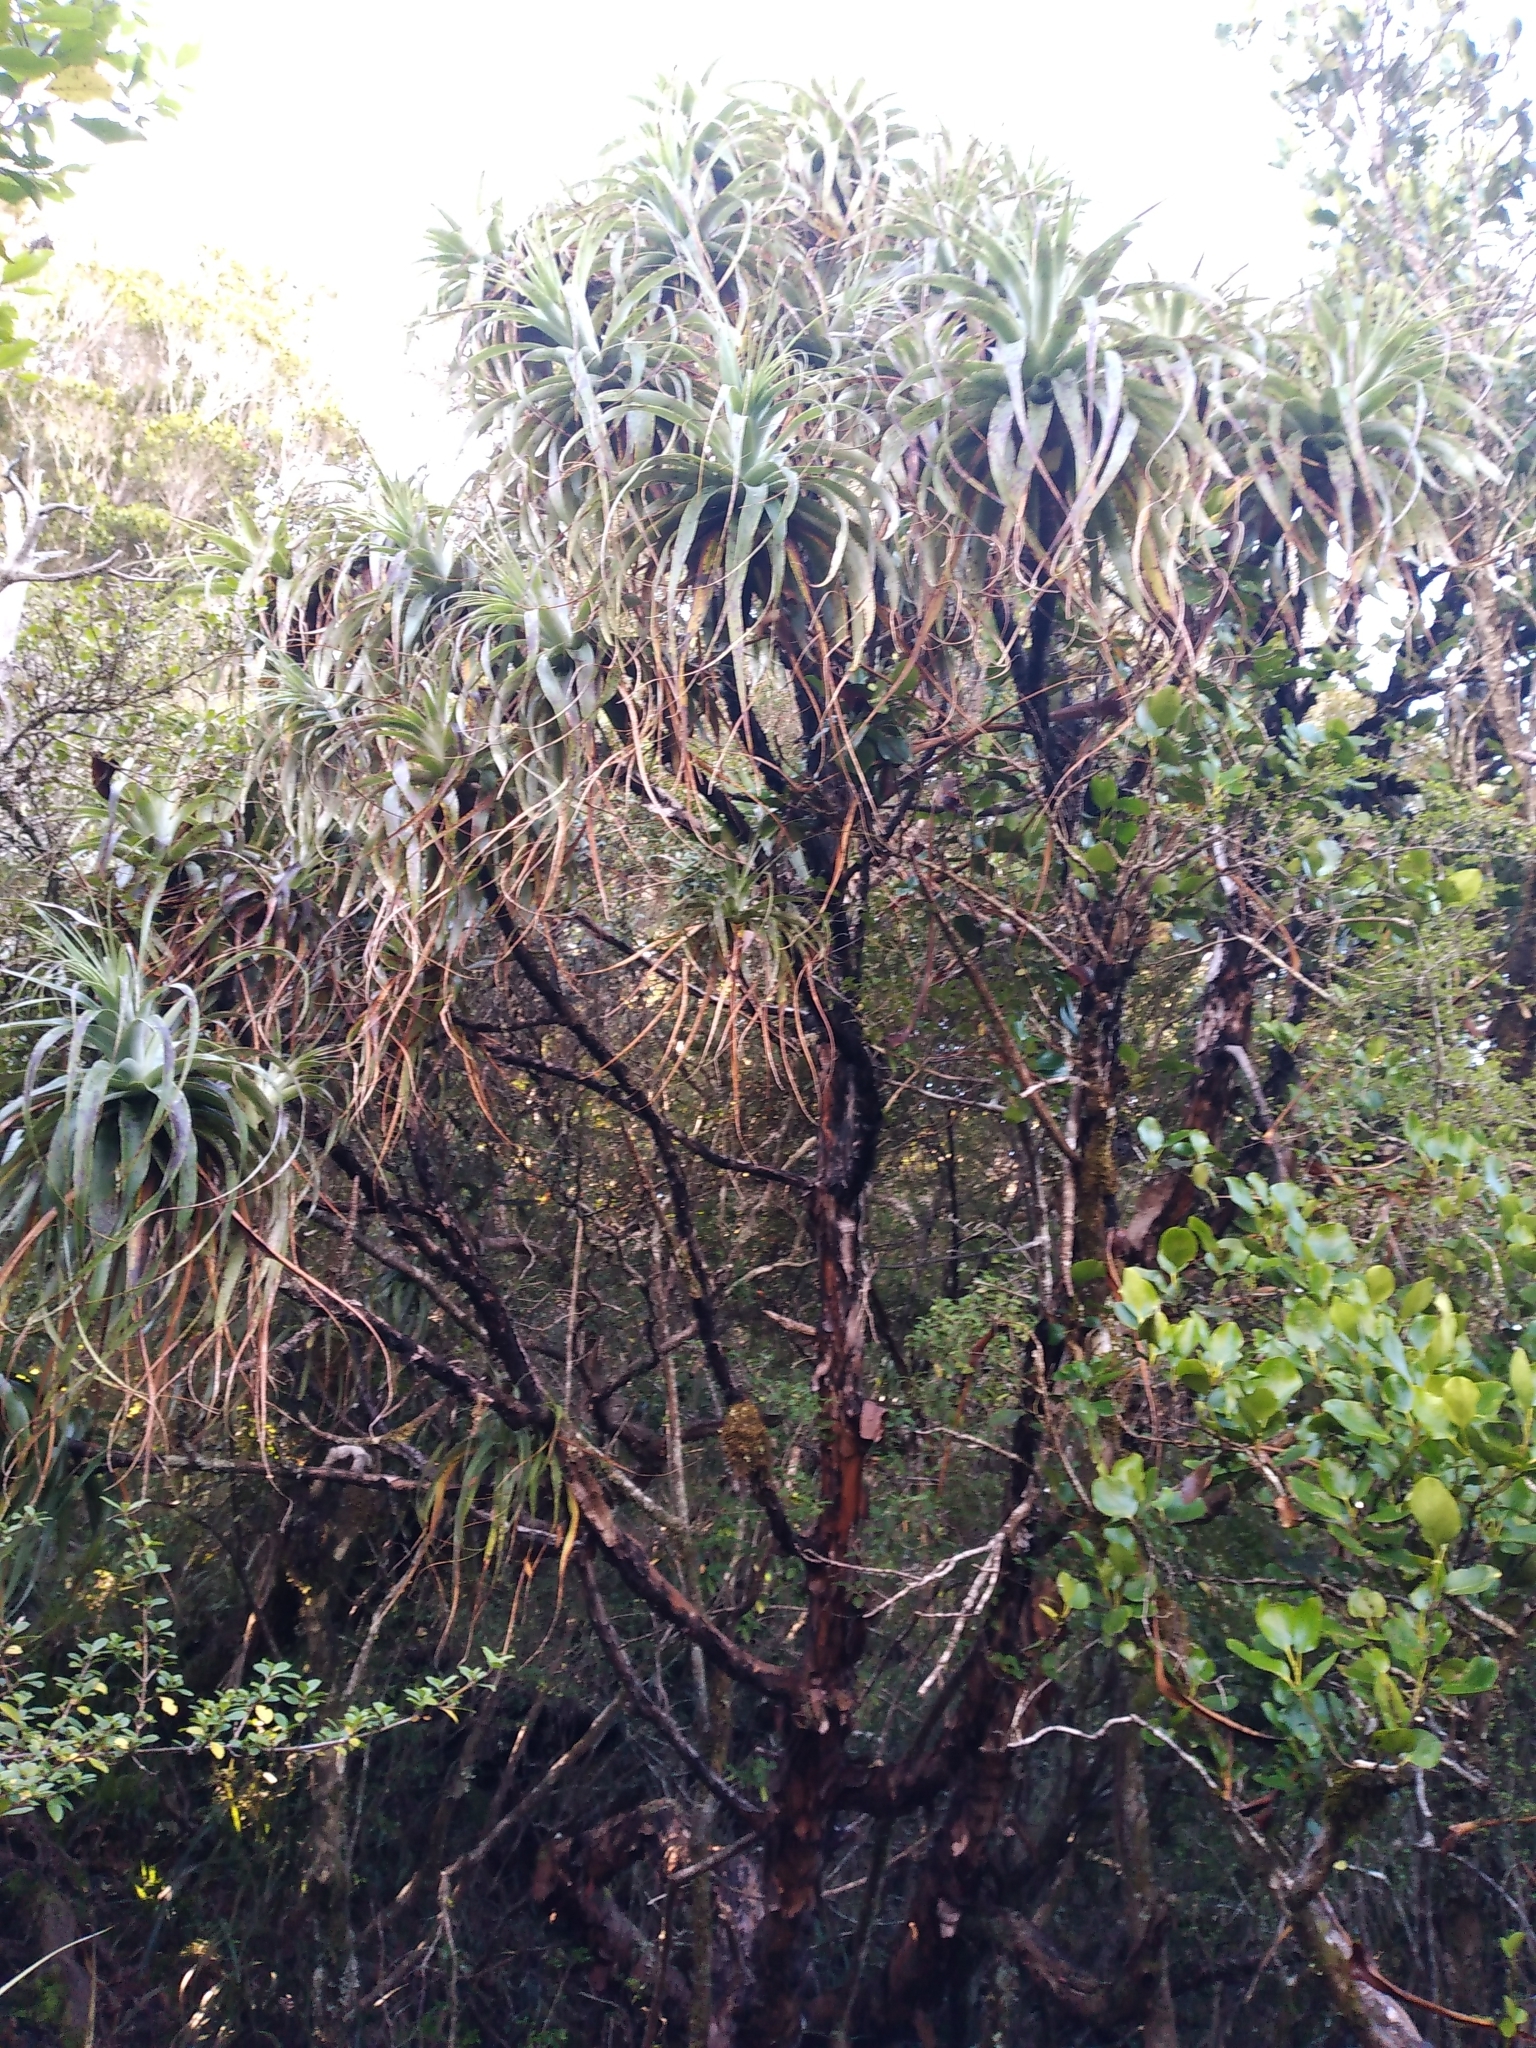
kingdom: Plantae
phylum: Tracheophyta
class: Magnoliopsida
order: Ericales
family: Ericaceae
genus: Dracophyllum
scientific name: Dracophyllum traversii
